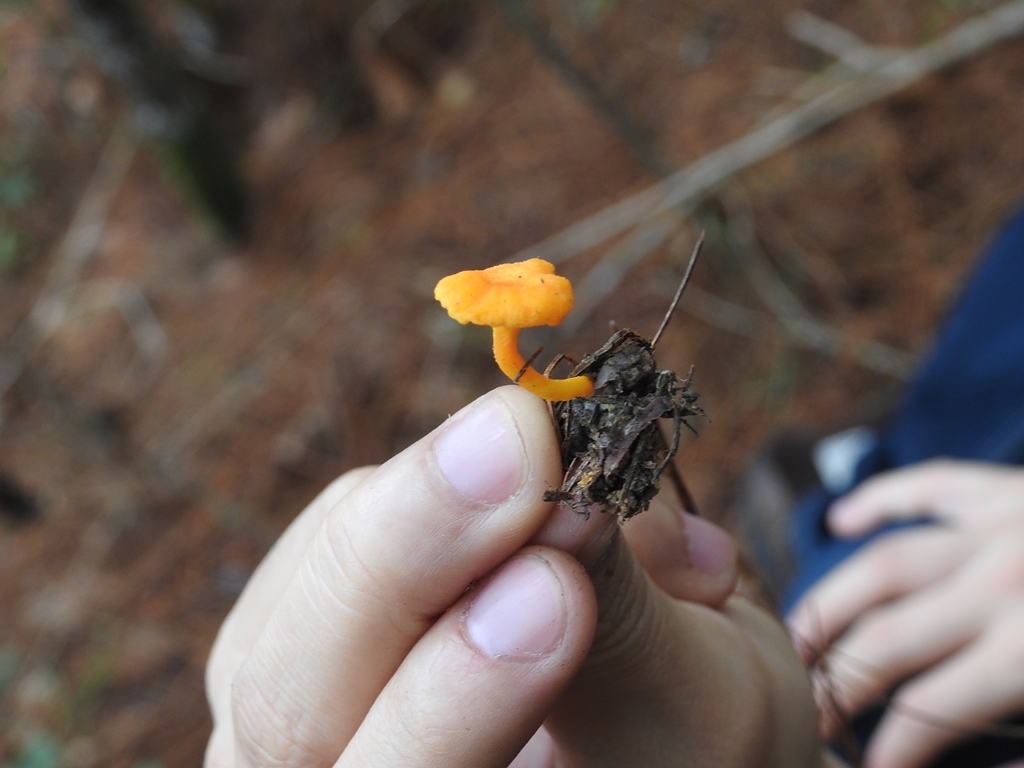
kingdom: Fungi
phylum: Basidiomycota
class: Agaricomycetes
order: Cantharellales
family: Hydnaceae
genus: Cantharellus
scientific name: Cantharellus minor
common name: Small chanterelle
